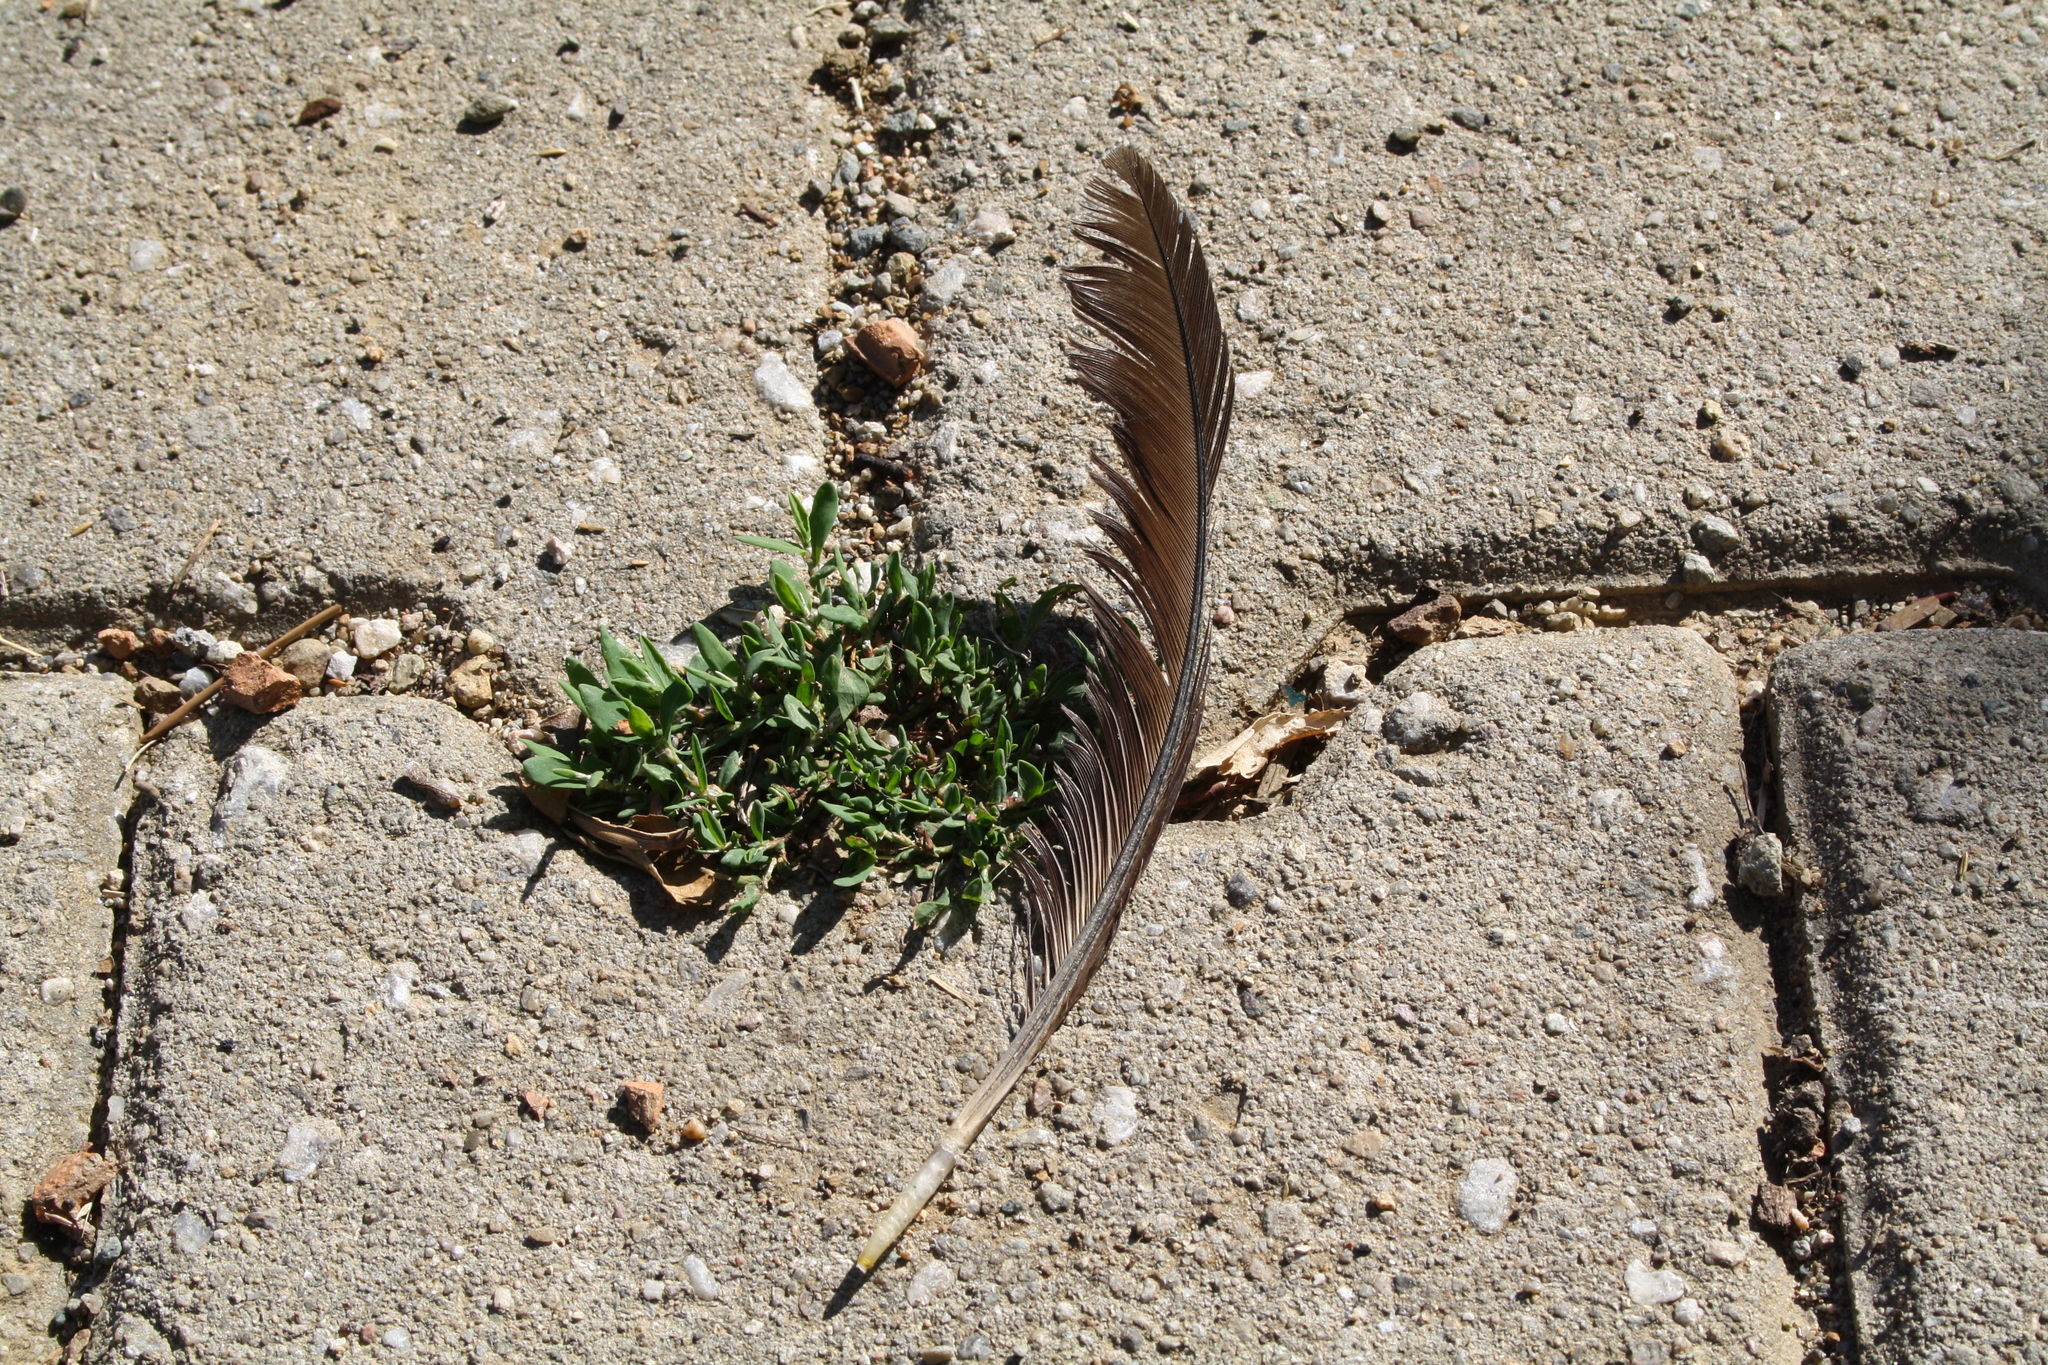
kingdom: Animalia
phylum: Chordata
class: Aves
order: Galliformes
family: Phasianidae
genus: Gallus
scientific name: Gallus gallus
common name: Red junglefowl
